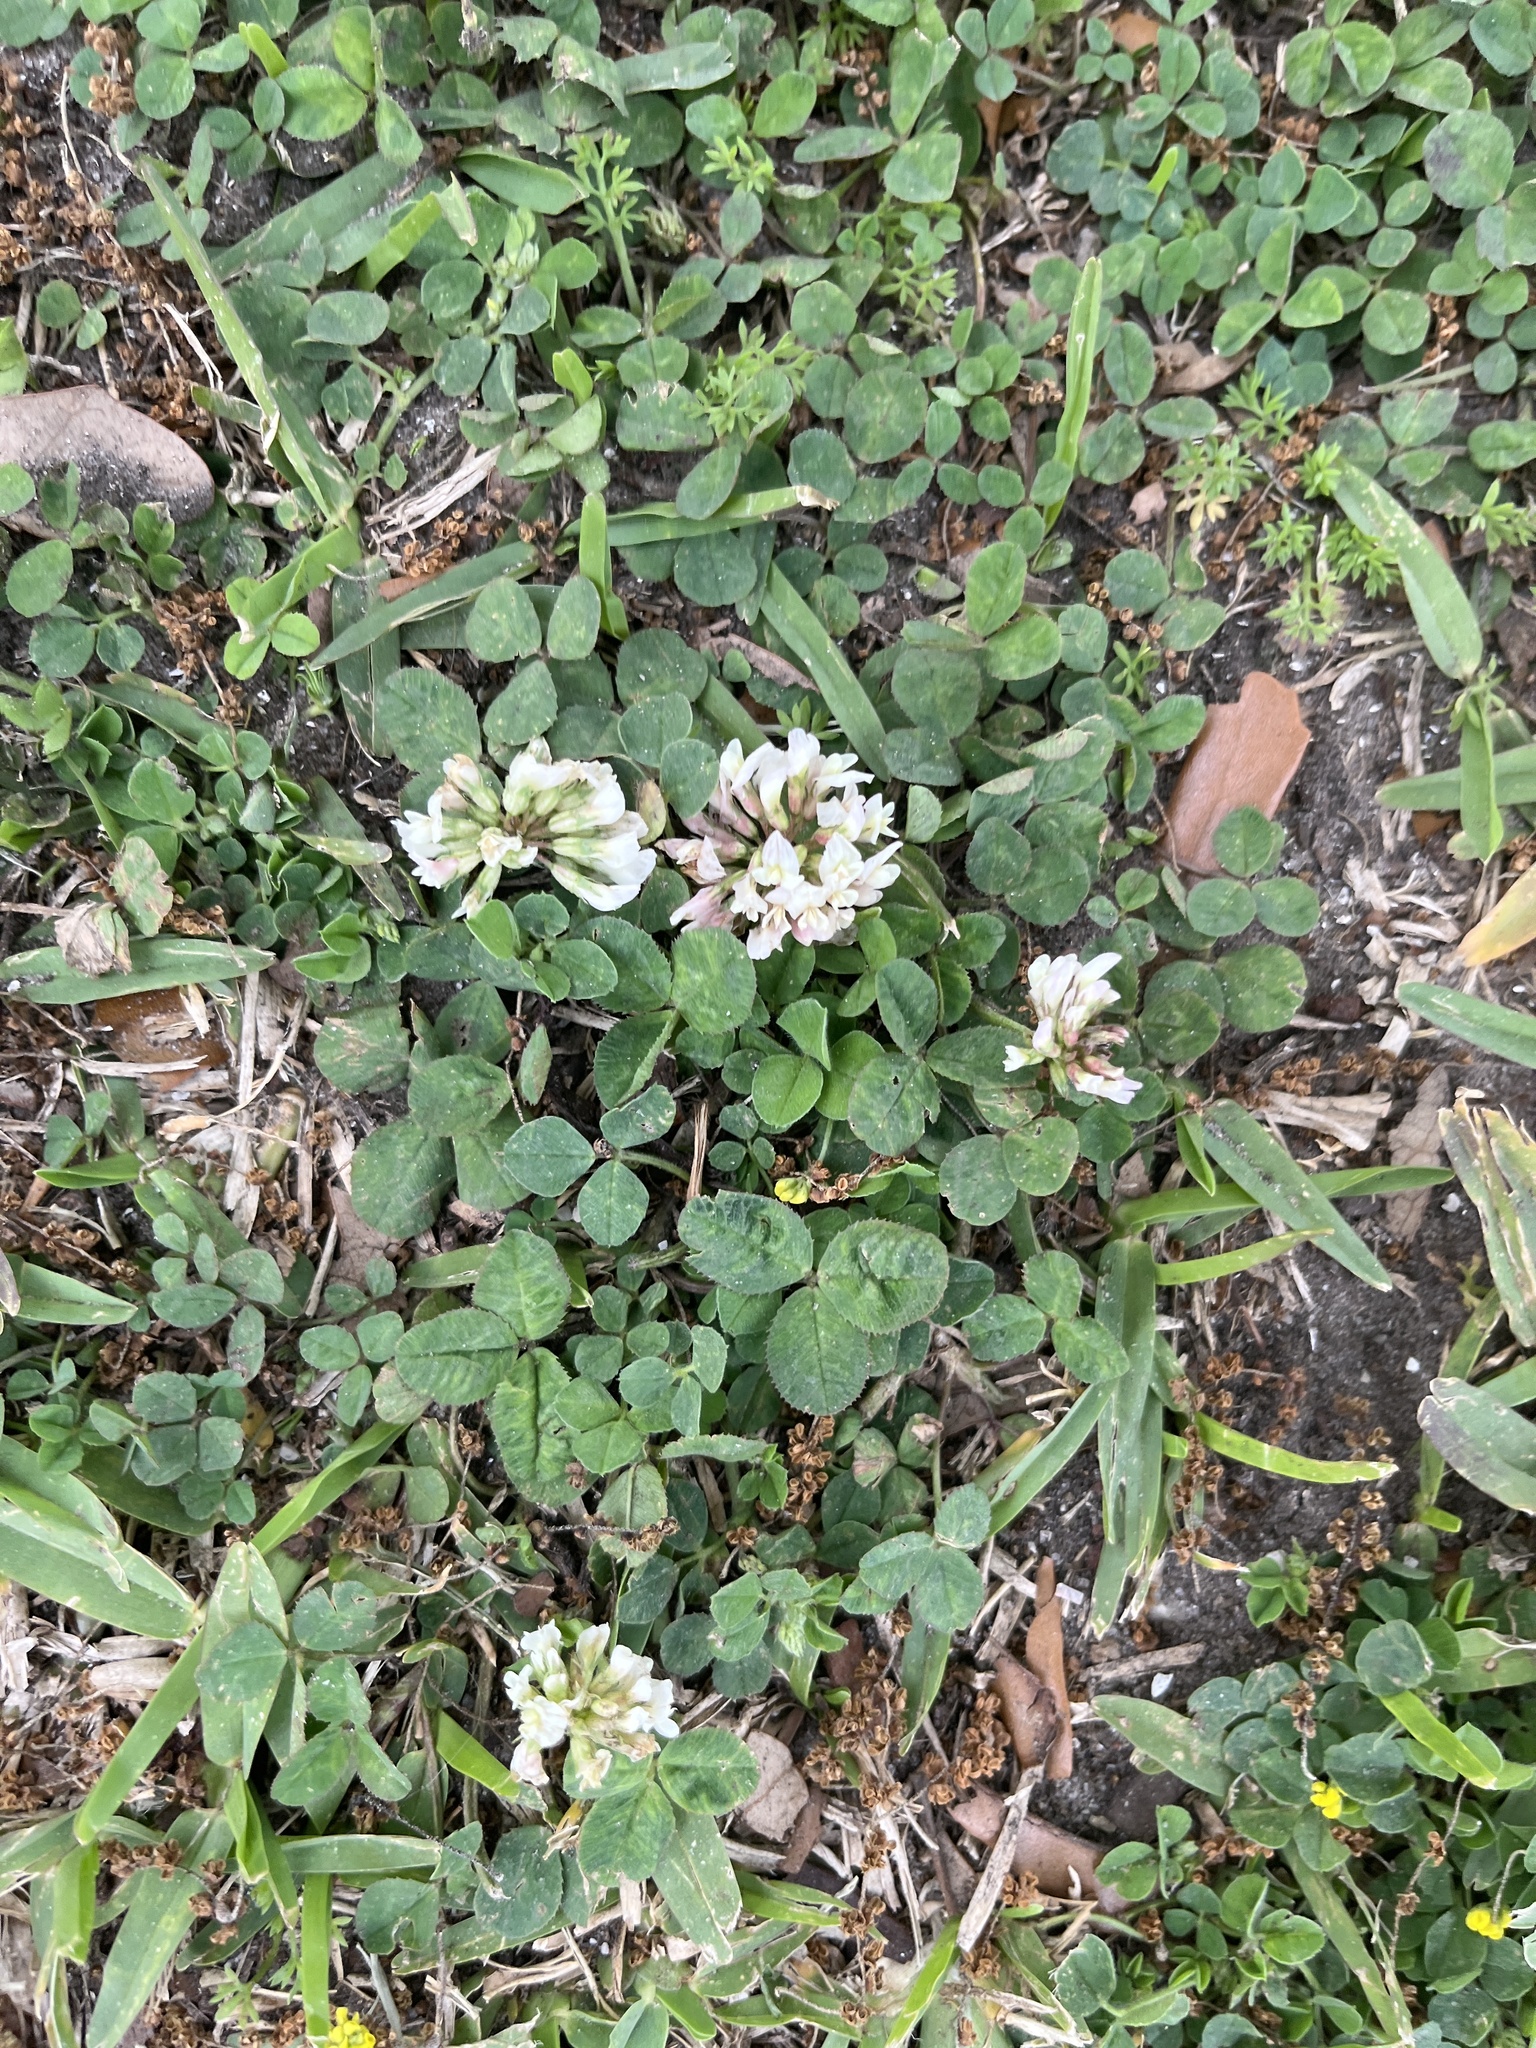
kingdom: Plantae
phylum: Tracheophyta
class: Magnoliopsida
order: Fabales
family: Fabaceae
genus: Trifolium
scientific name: Trifolium repens
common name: White clover
